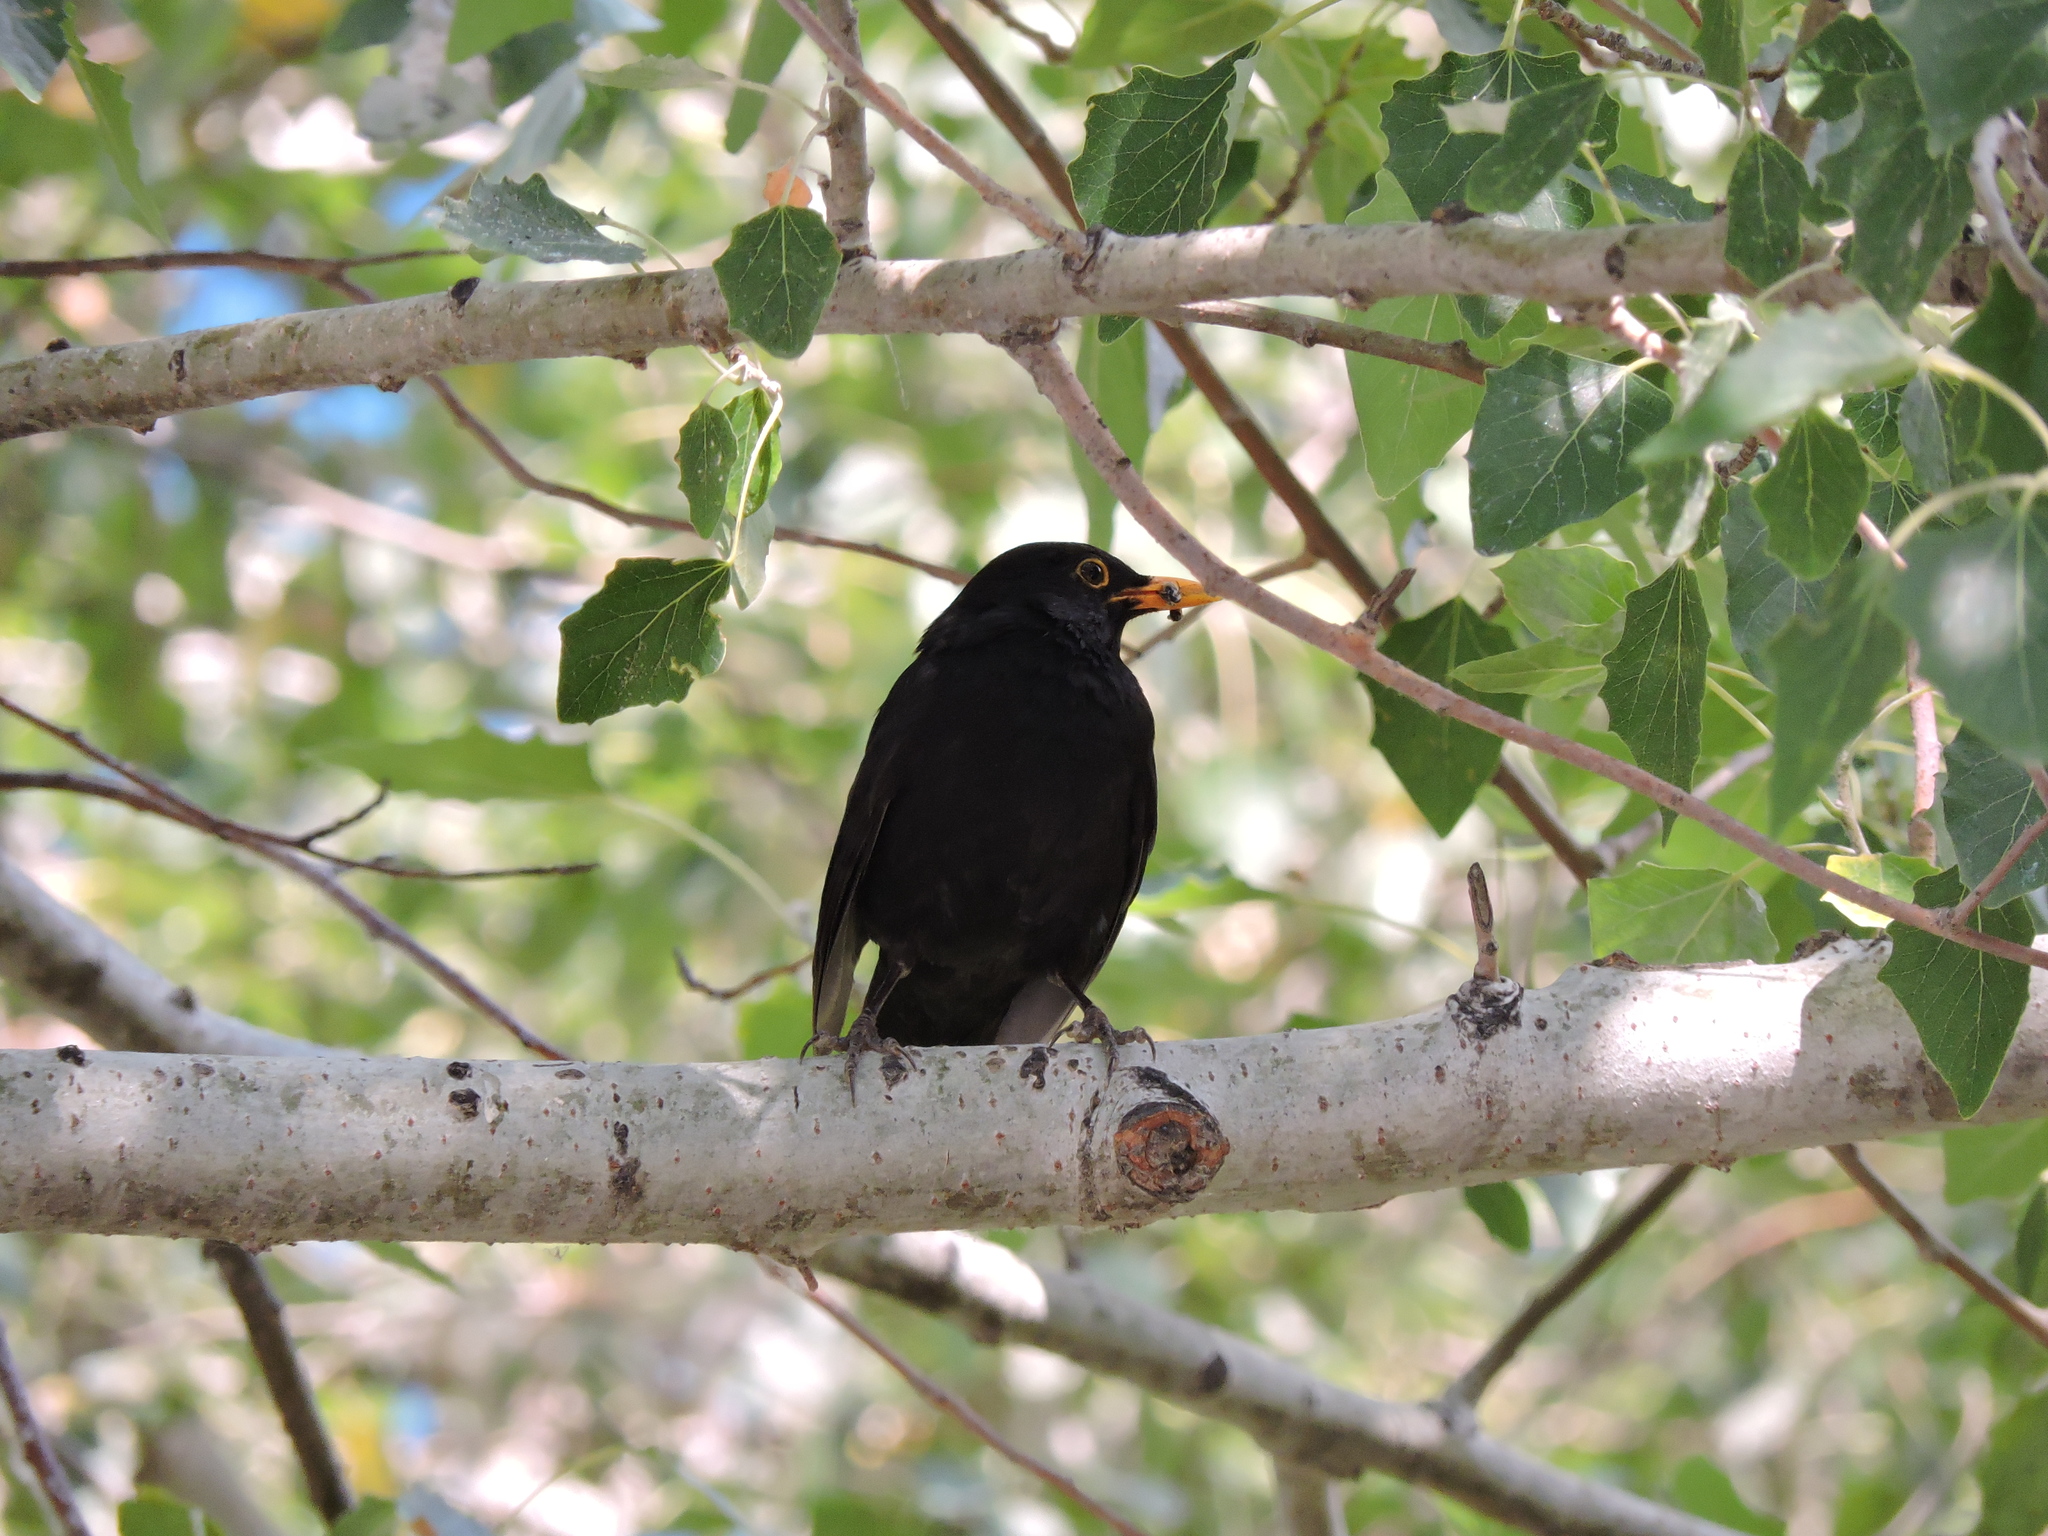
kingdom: Animalia
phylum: Chordata
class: Aves
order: Passeriformes
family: Turdidae
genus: Turdus
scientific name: Turdus merula
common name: Common blackbird
